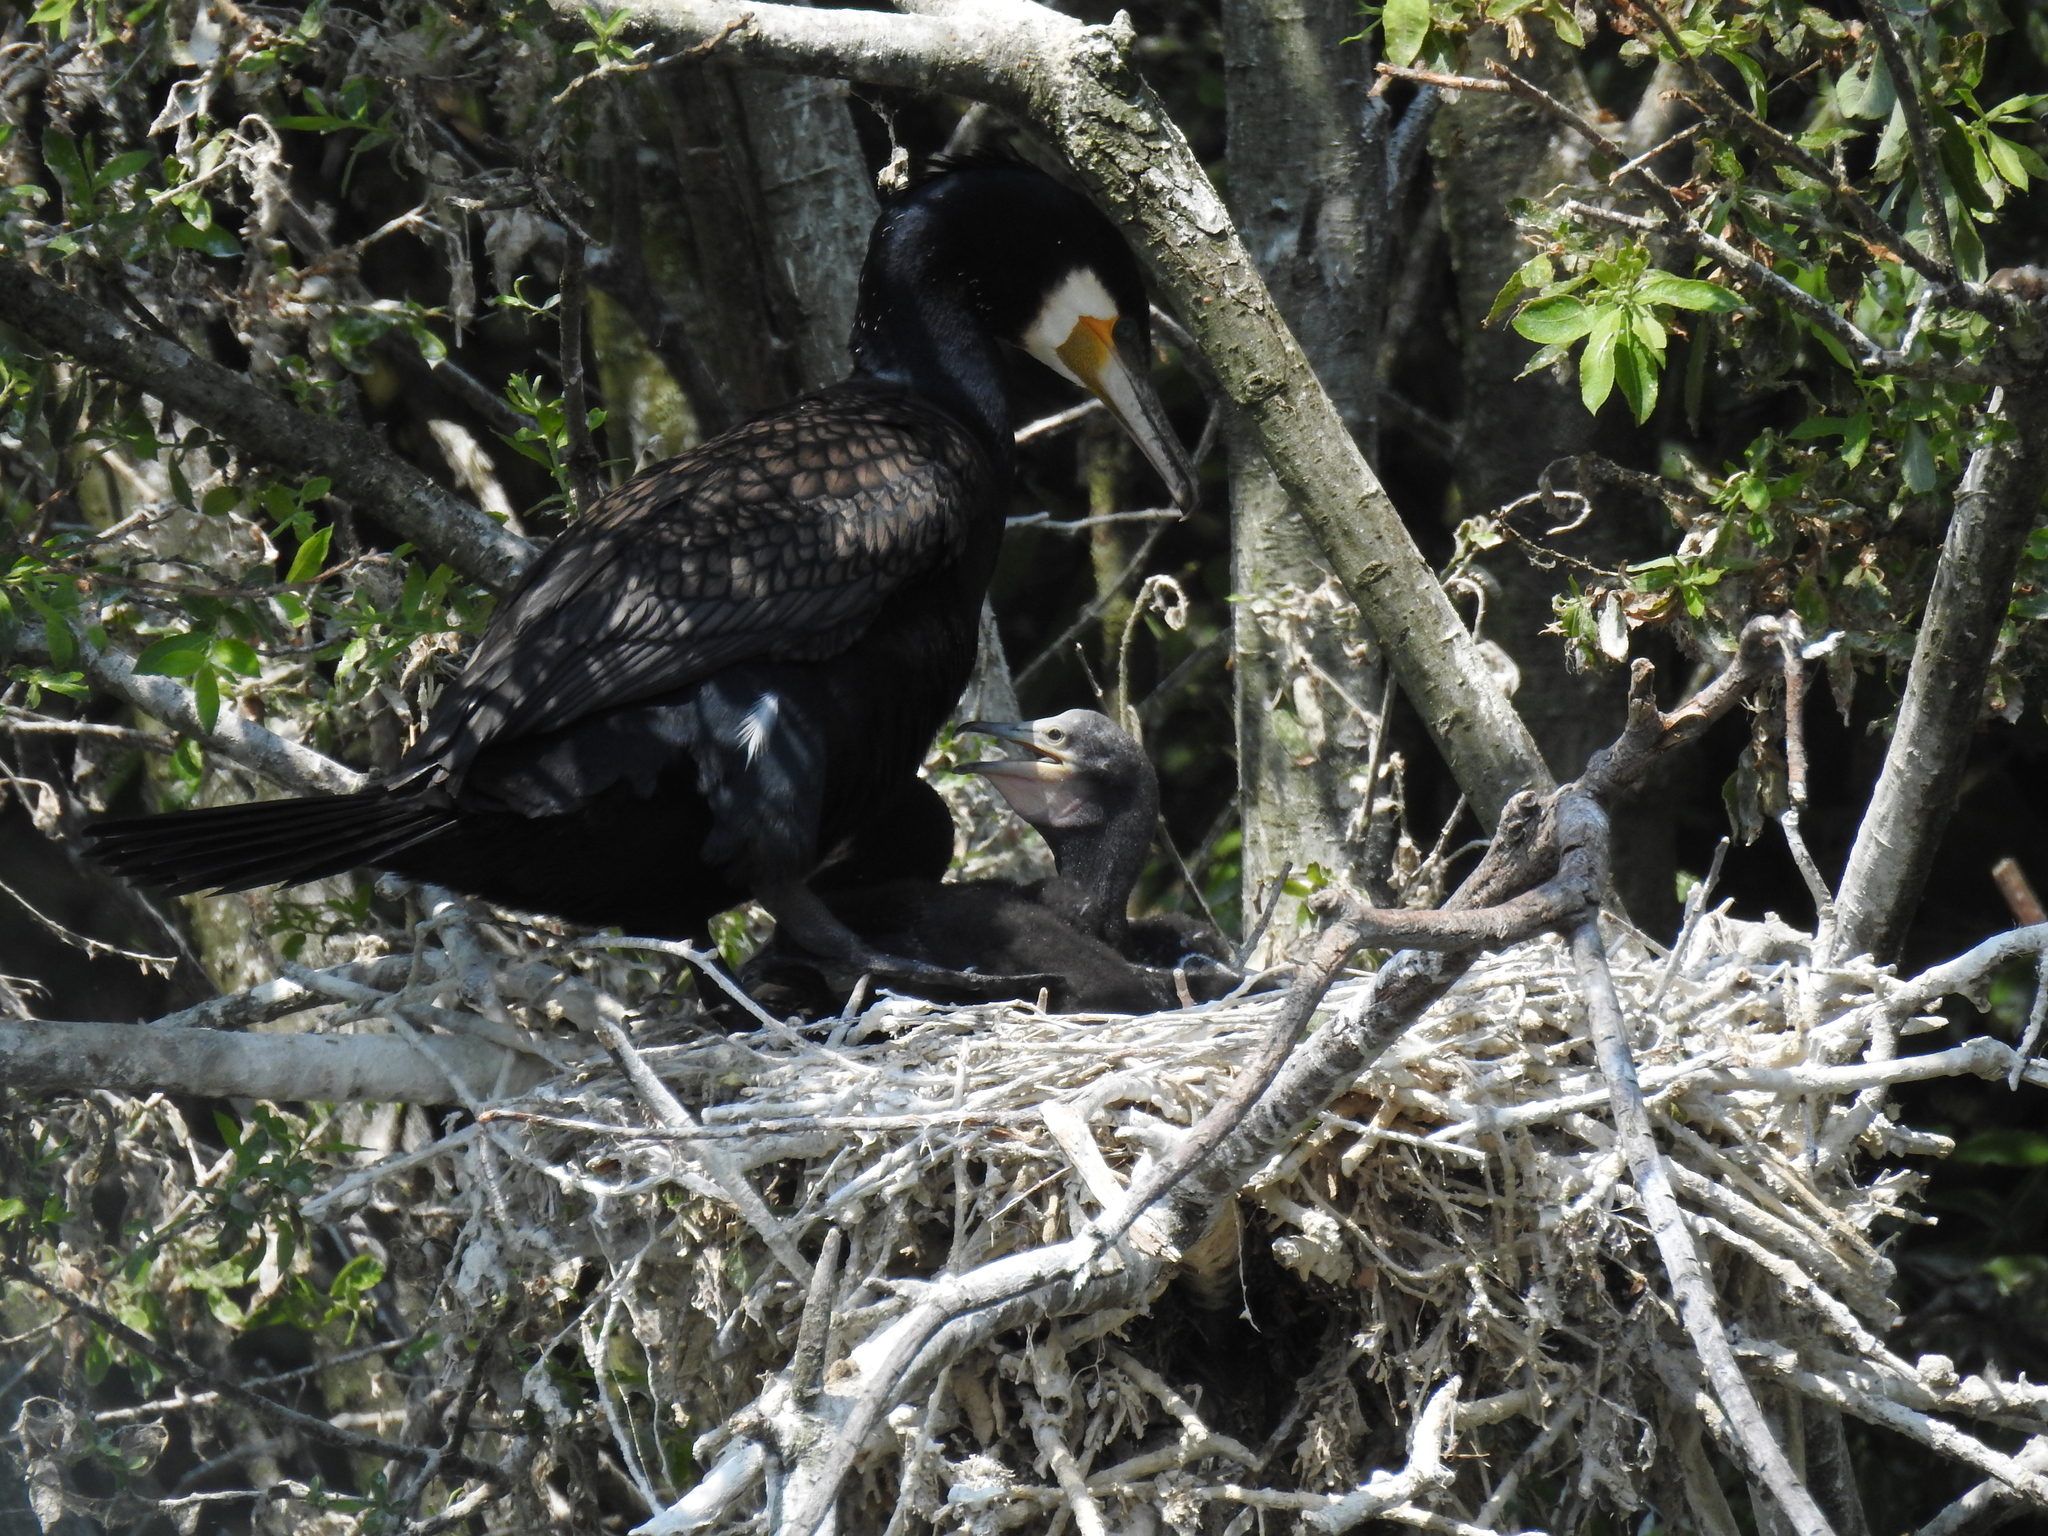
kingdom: Animalia
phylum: Chordata
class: Aves
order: Suliformes
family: Phalacrocoracidae
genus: Phalacrocorax
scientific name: Phalacrocorax carbo
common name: Great cormorant
